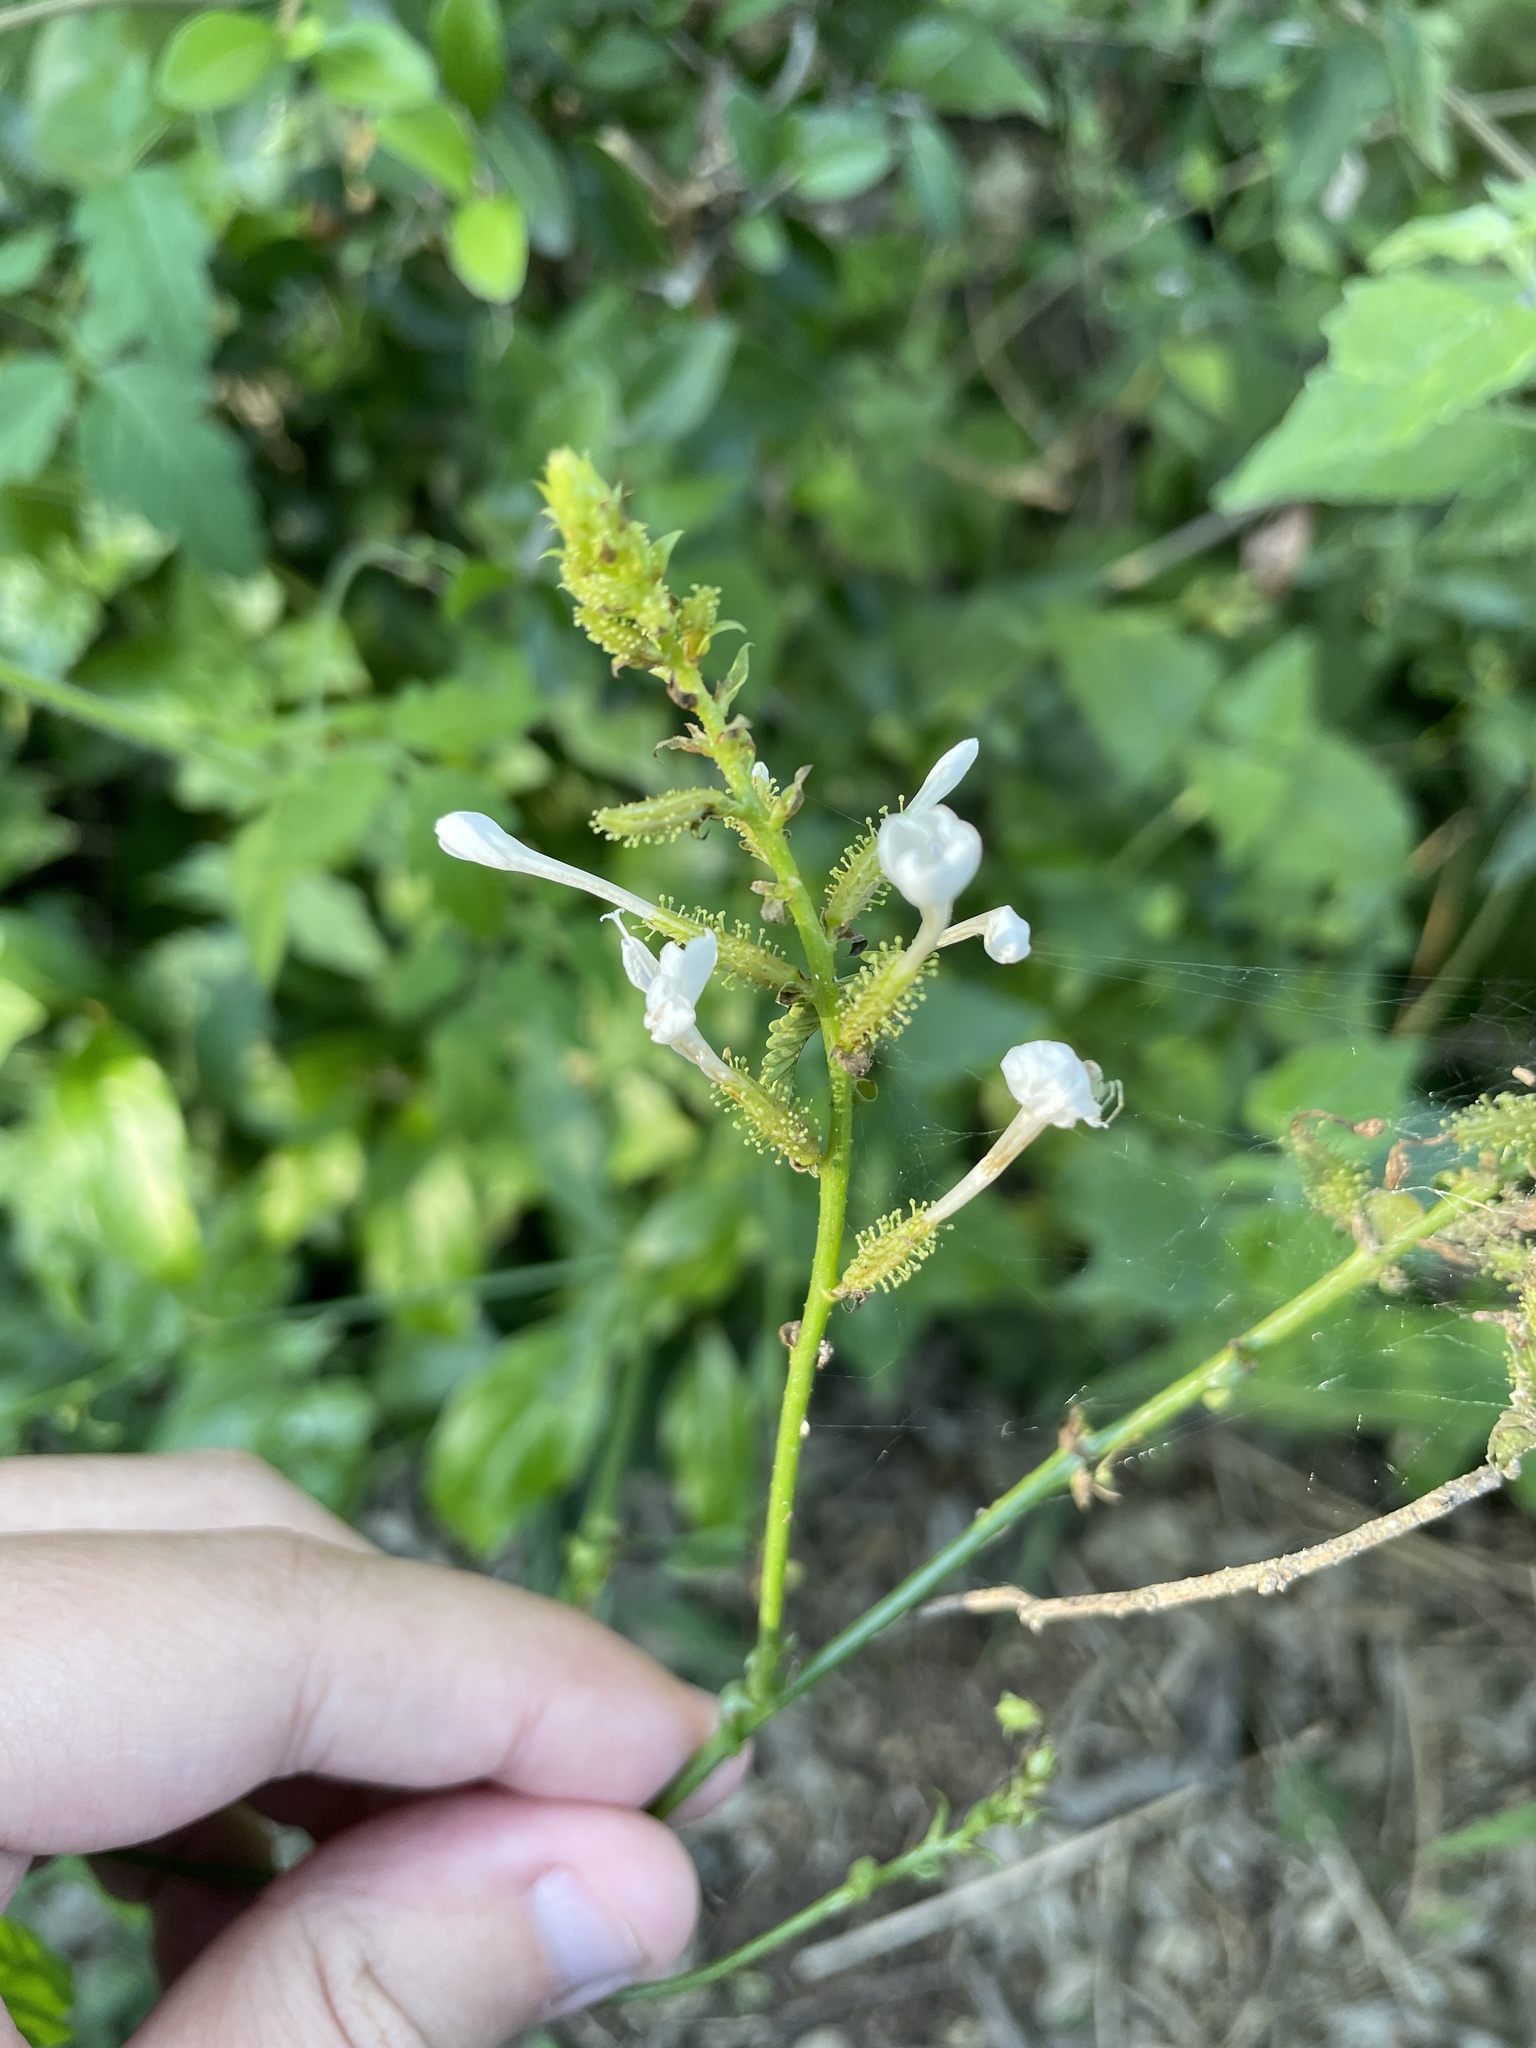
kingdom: Plantae
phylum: Tracheophyta
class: Magnoliopsida
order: Caryophyllales
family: Plumbaginaceae
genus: Plumbago
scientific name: Plumbago zeylanica
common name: Doctorbush
